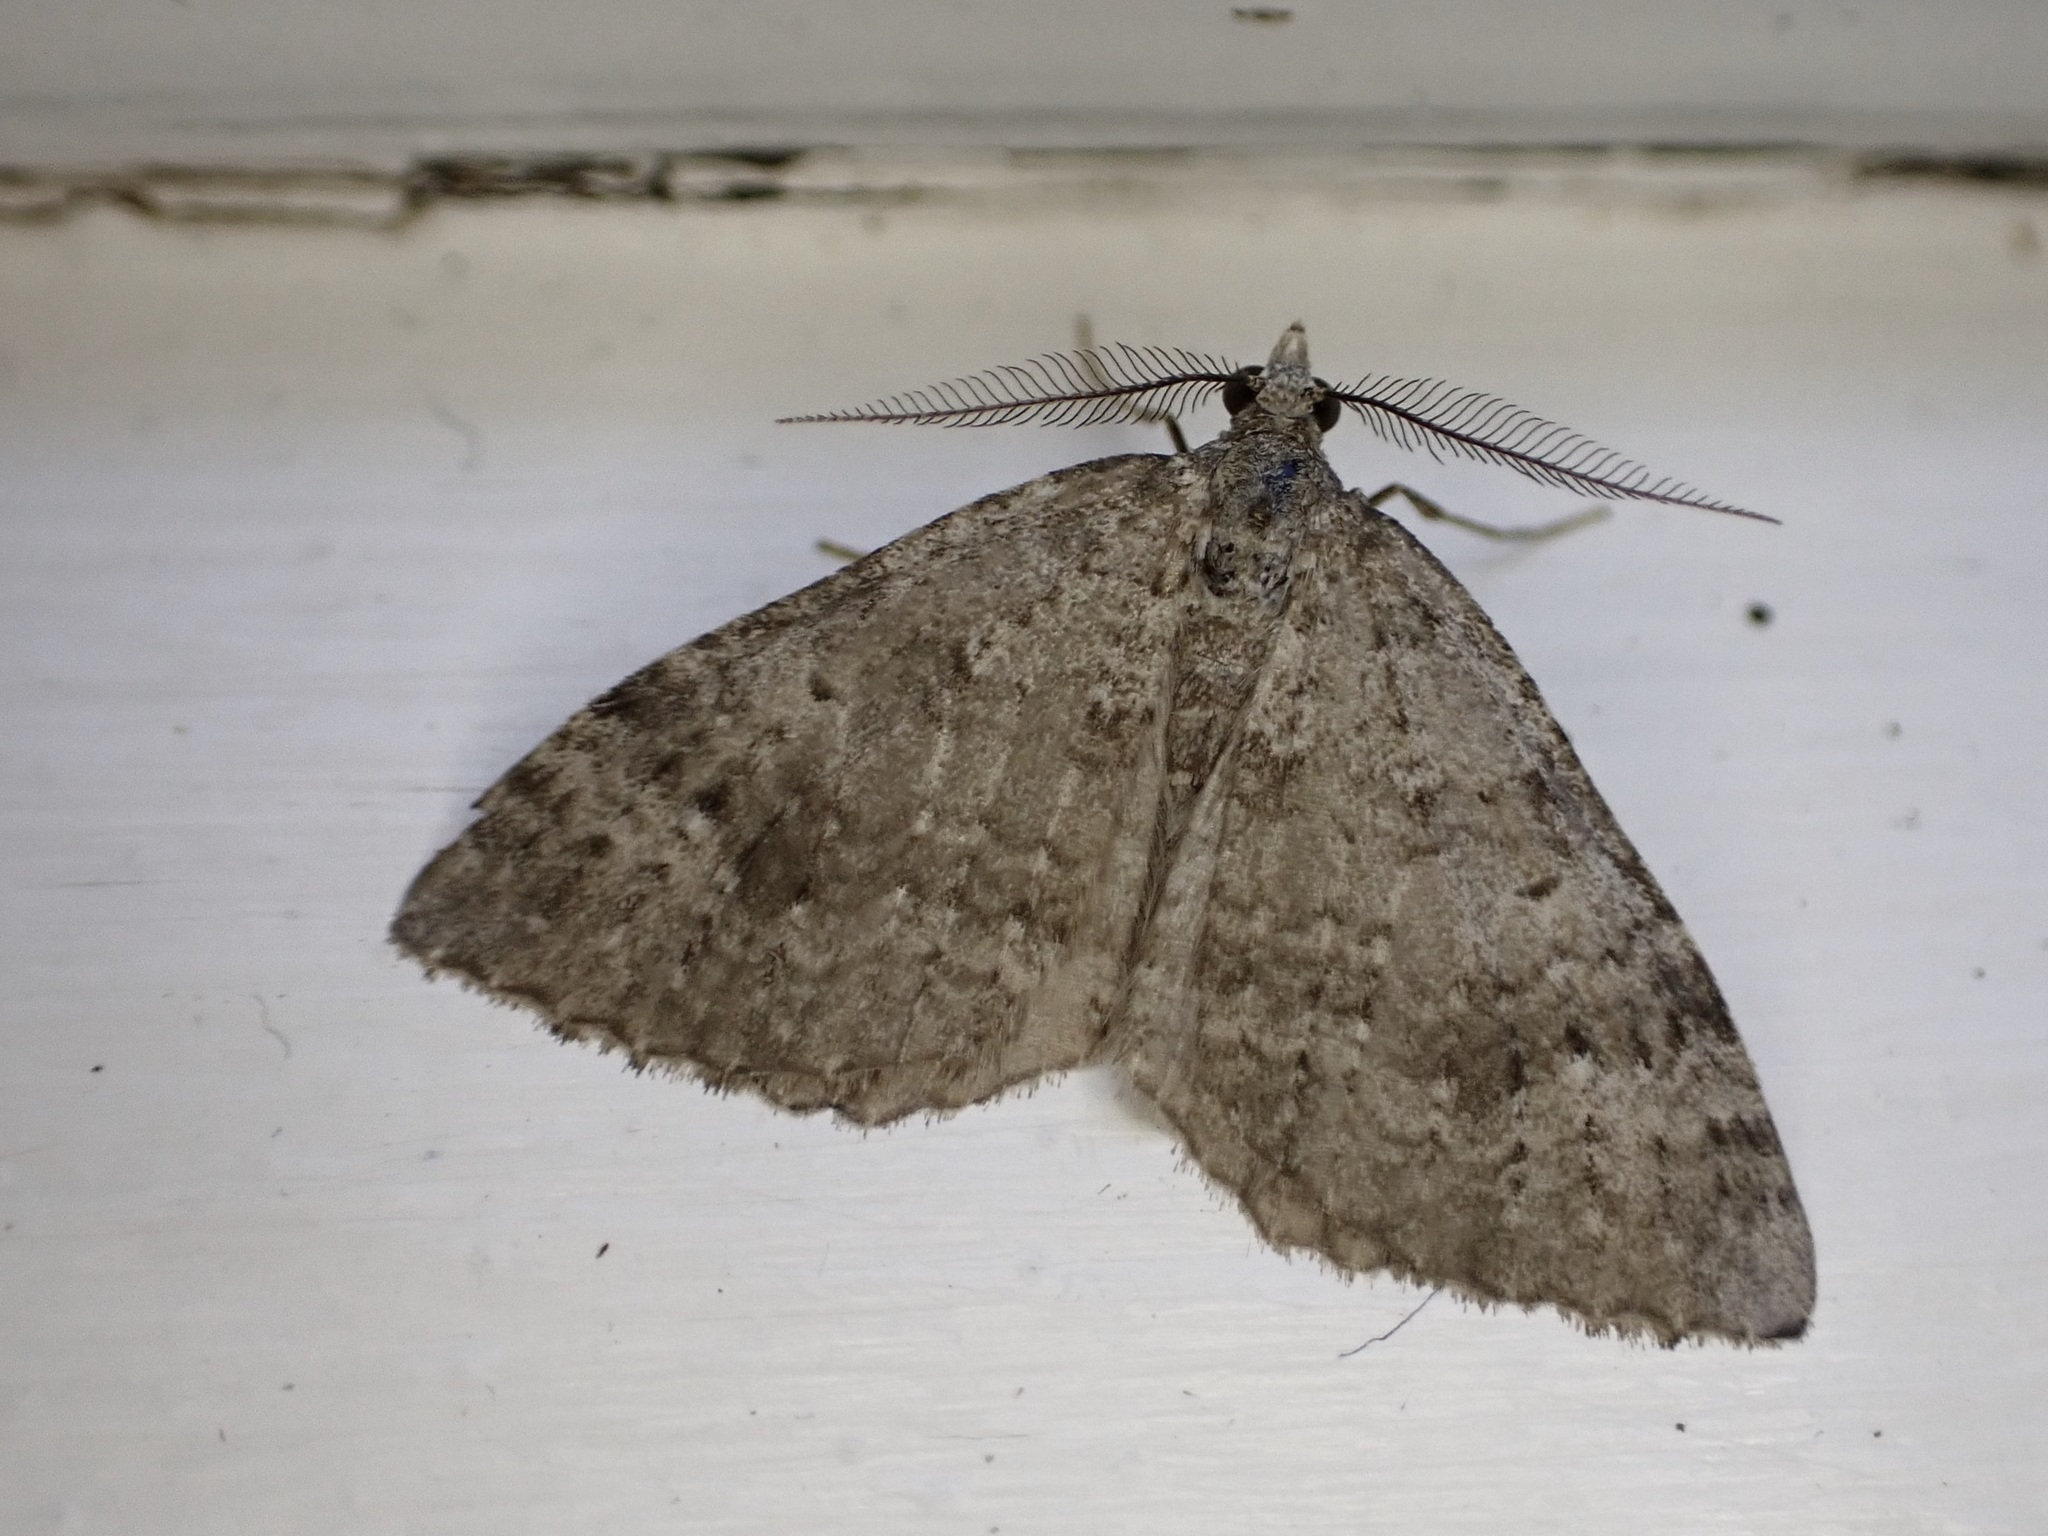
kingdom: Animalia
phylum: Arthropoda
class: Insecta
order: Lepidoptera
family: Geometridae
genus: Helastia
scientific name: Helastia corcularia
